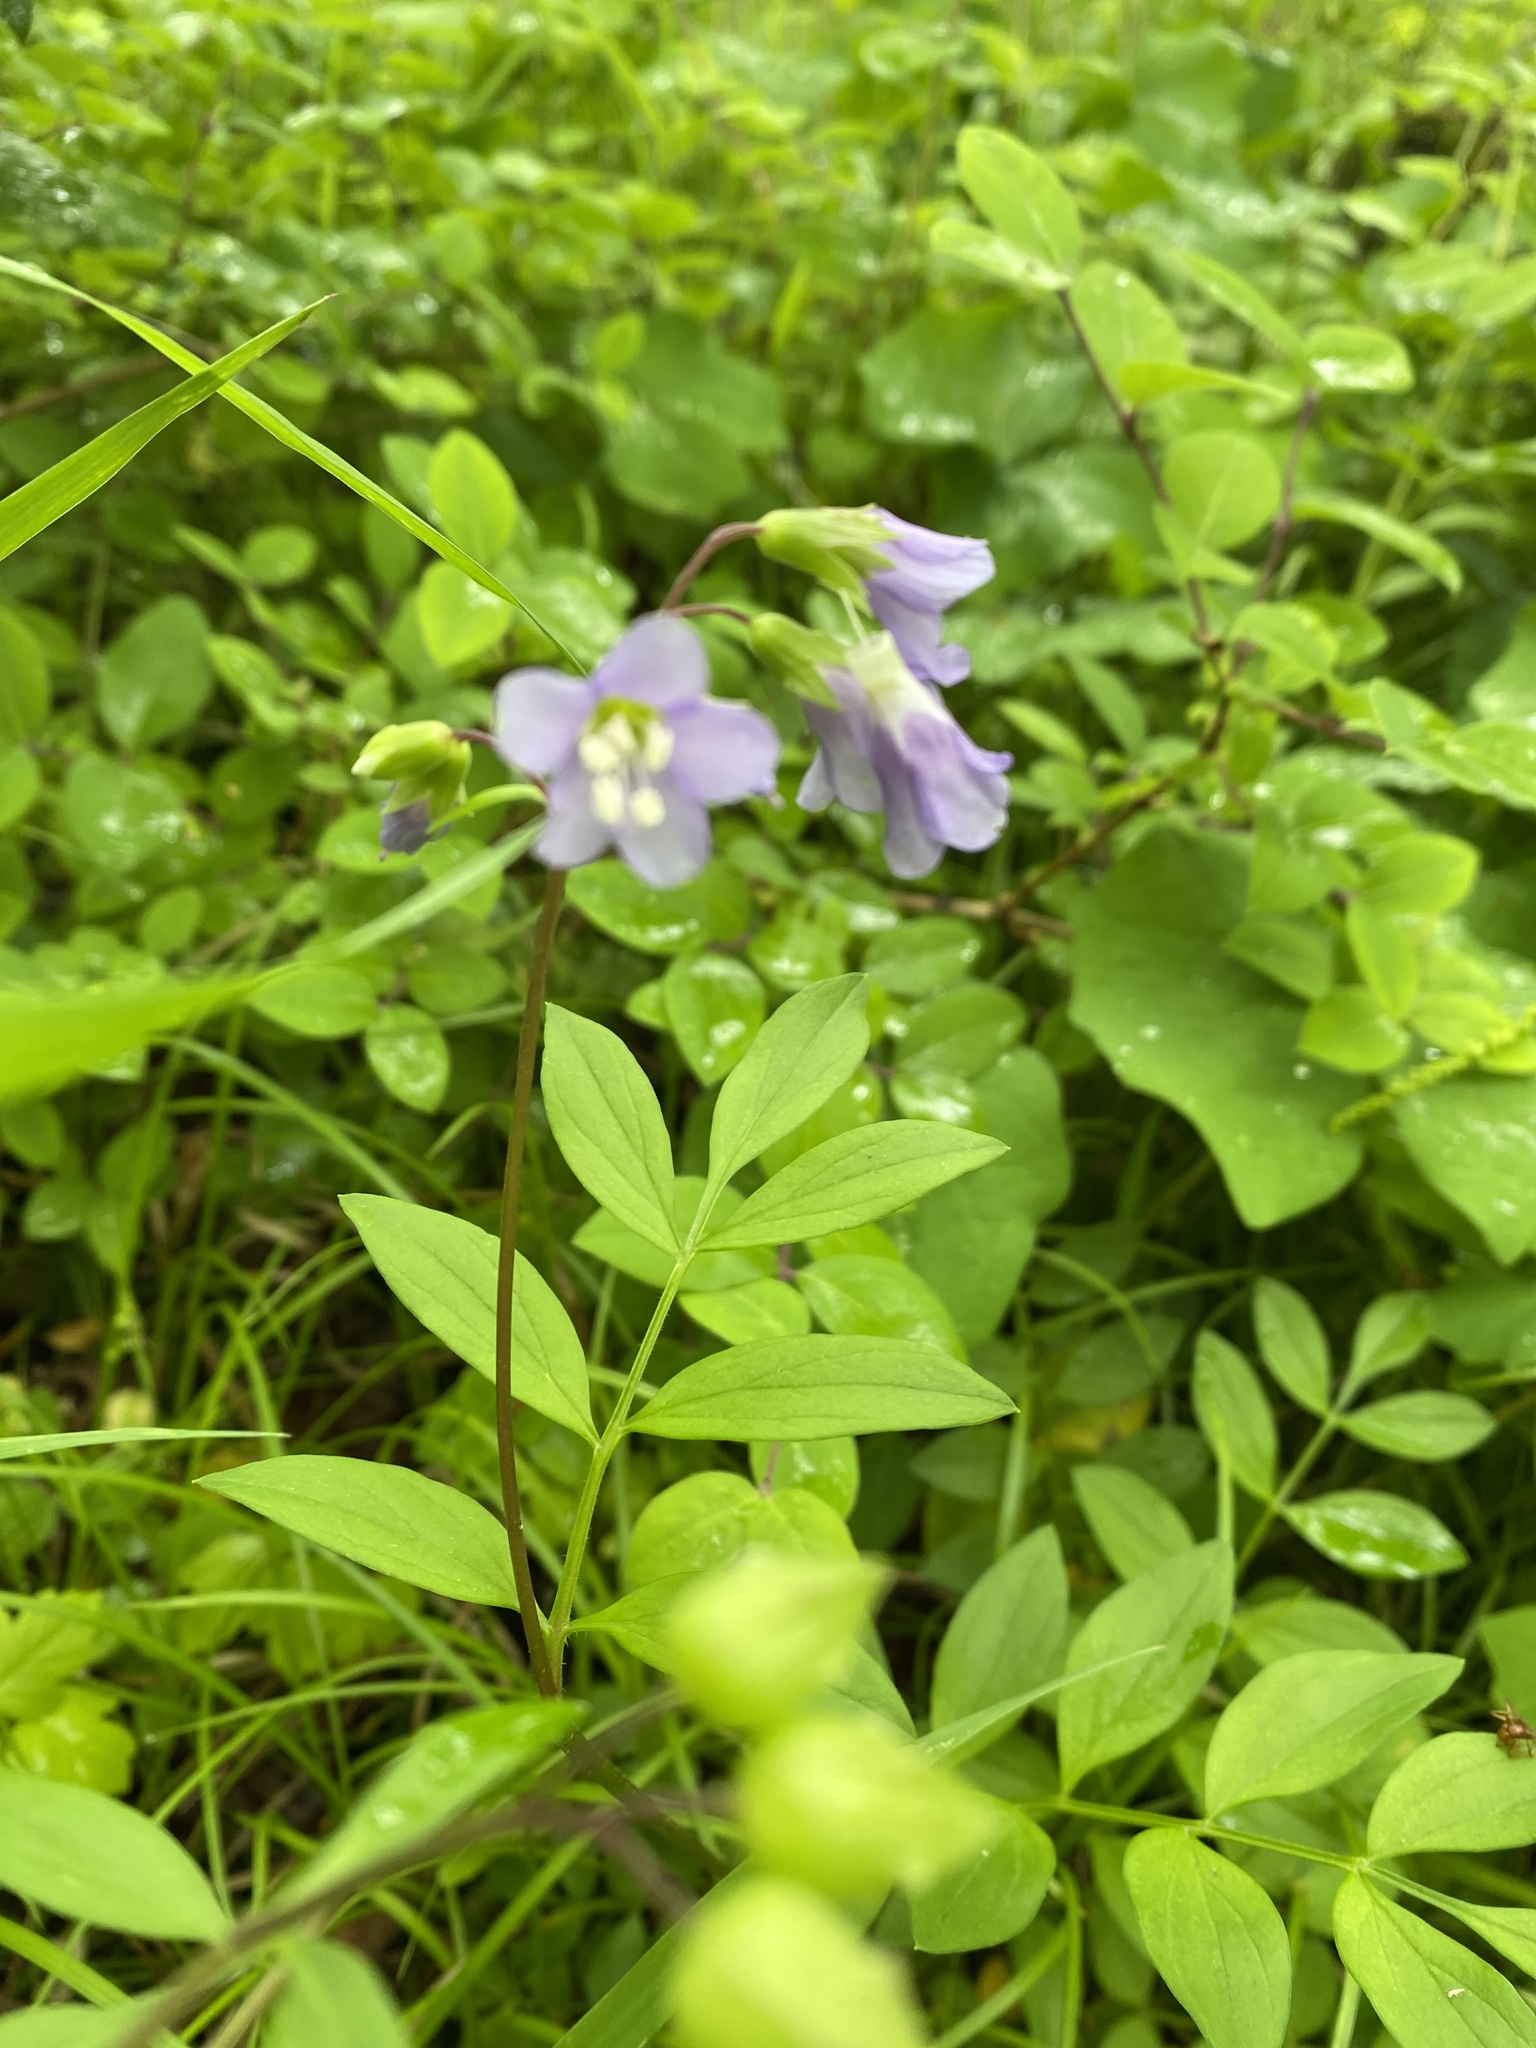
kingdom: Plantae
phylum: Tracheophyta
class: Magnoliopsida
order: Ericales
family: Polemoniaceae
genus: Polemonium
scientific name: Polemonium reptans
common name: Creeping jacob's-ladder
